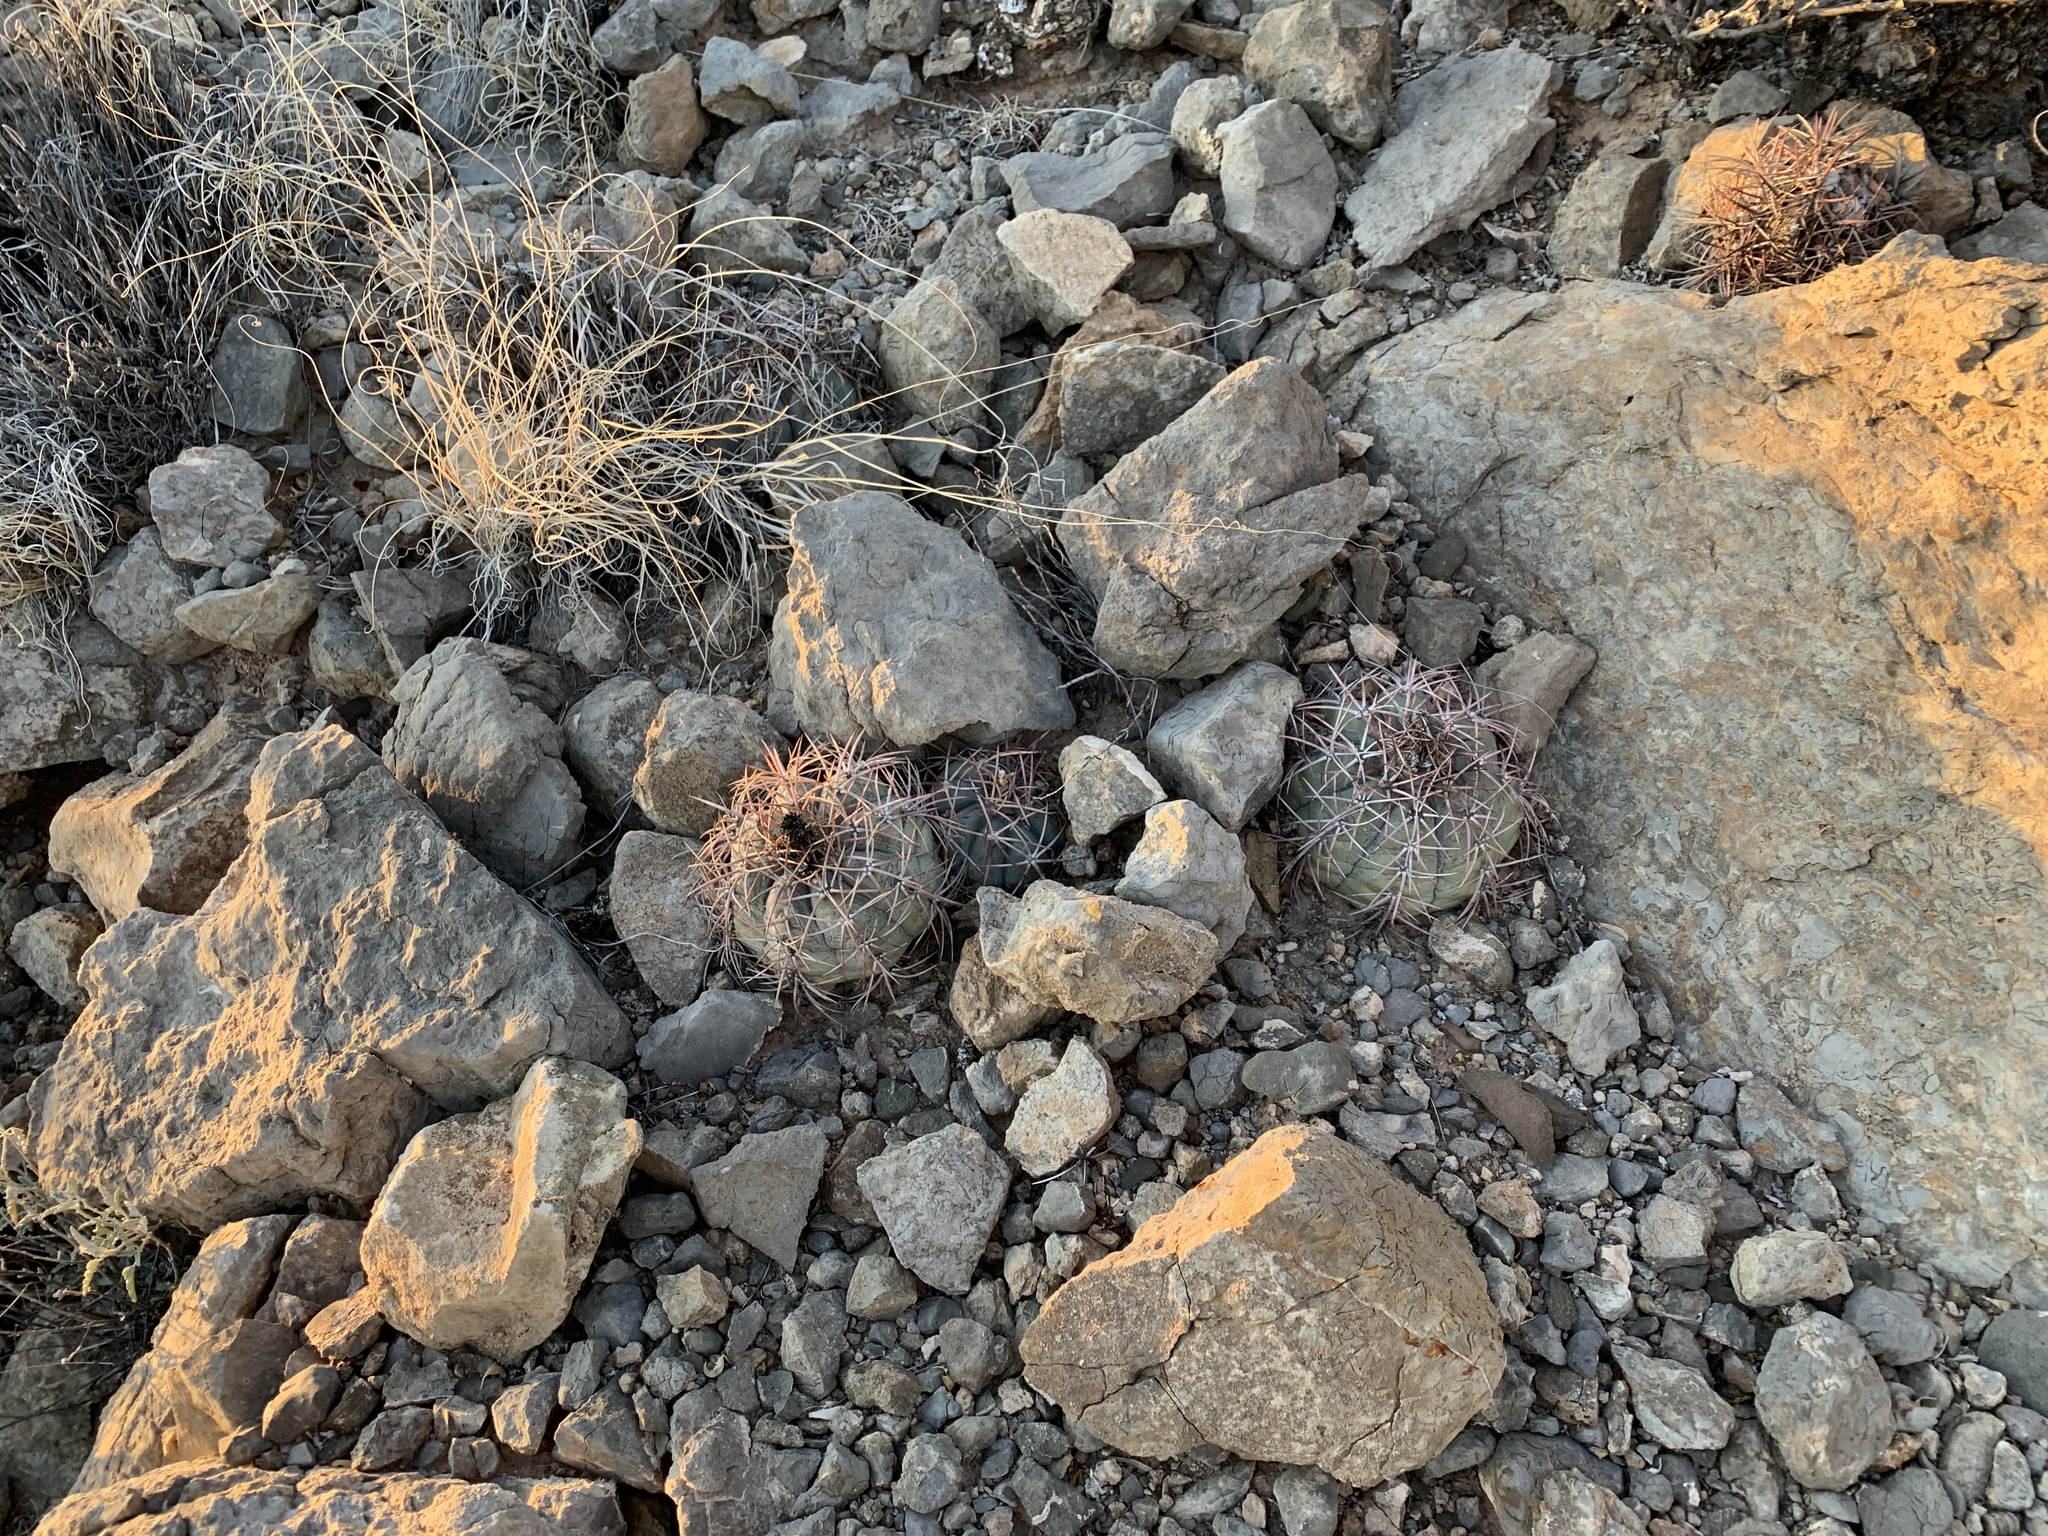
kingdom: Plantae
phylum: Tracheophyta
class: Magnoliopsida
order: Caryophyllales
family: Cactaceae
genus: Echinocactus
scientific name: Echinocactus horizonthalonius
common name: Devilshead
